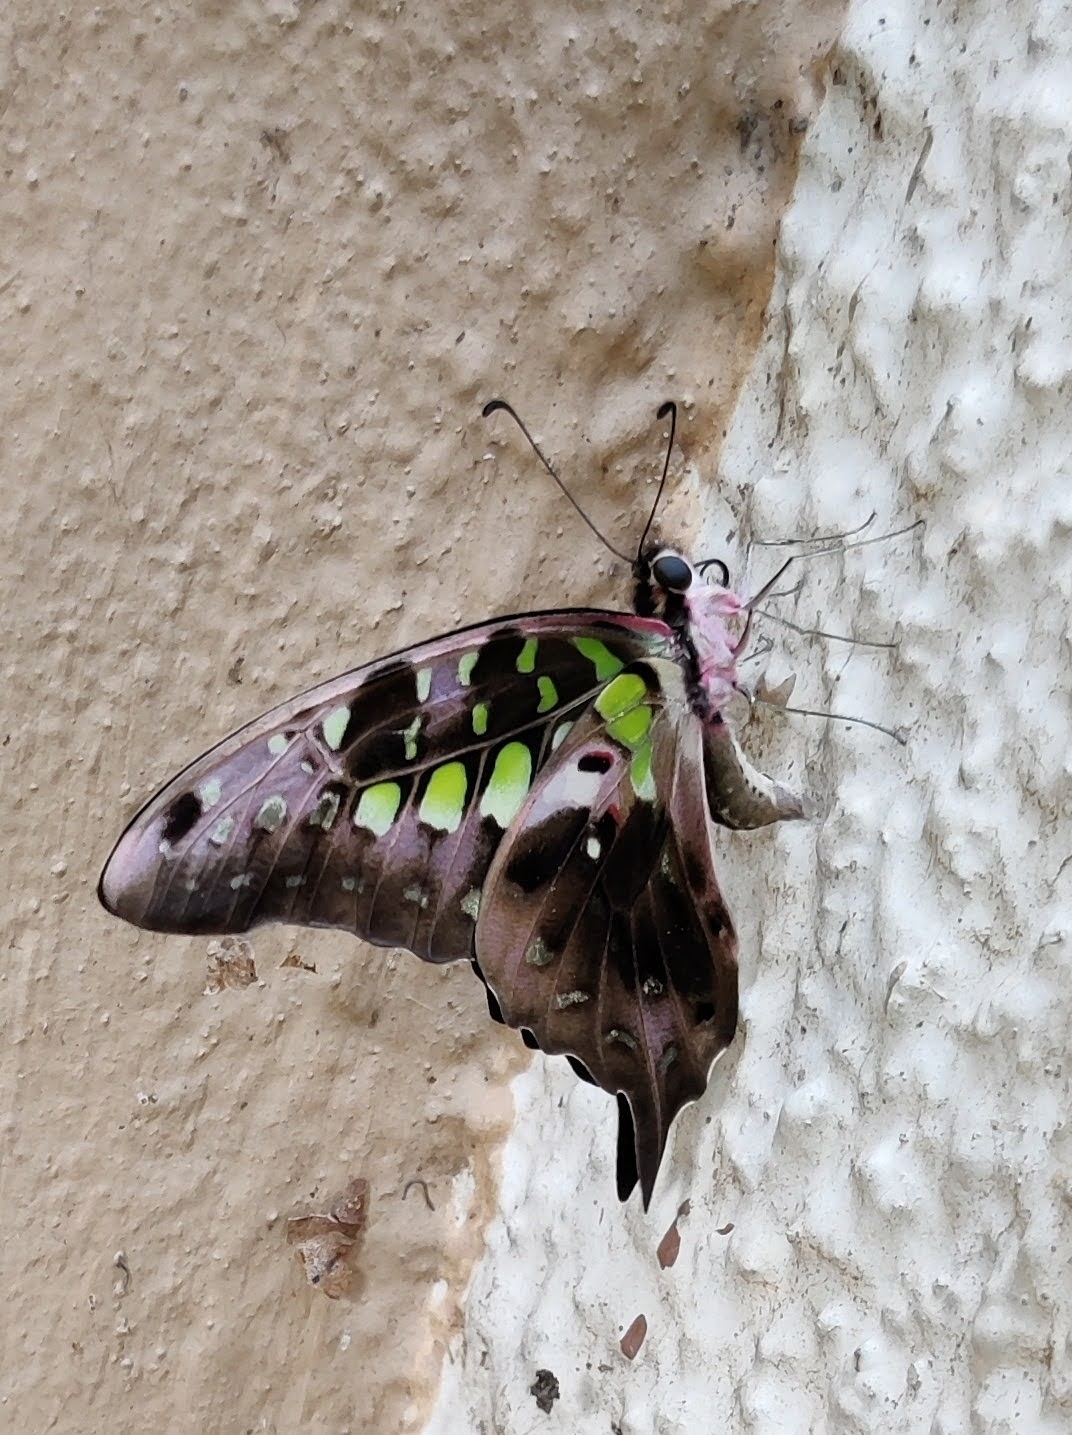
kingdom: Animalia
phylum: Arthropoda
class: Insecta
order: Lepidoptera
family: Papilionidae
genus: Graphium
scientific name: Graphium agamemnon
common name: Tailed jay
